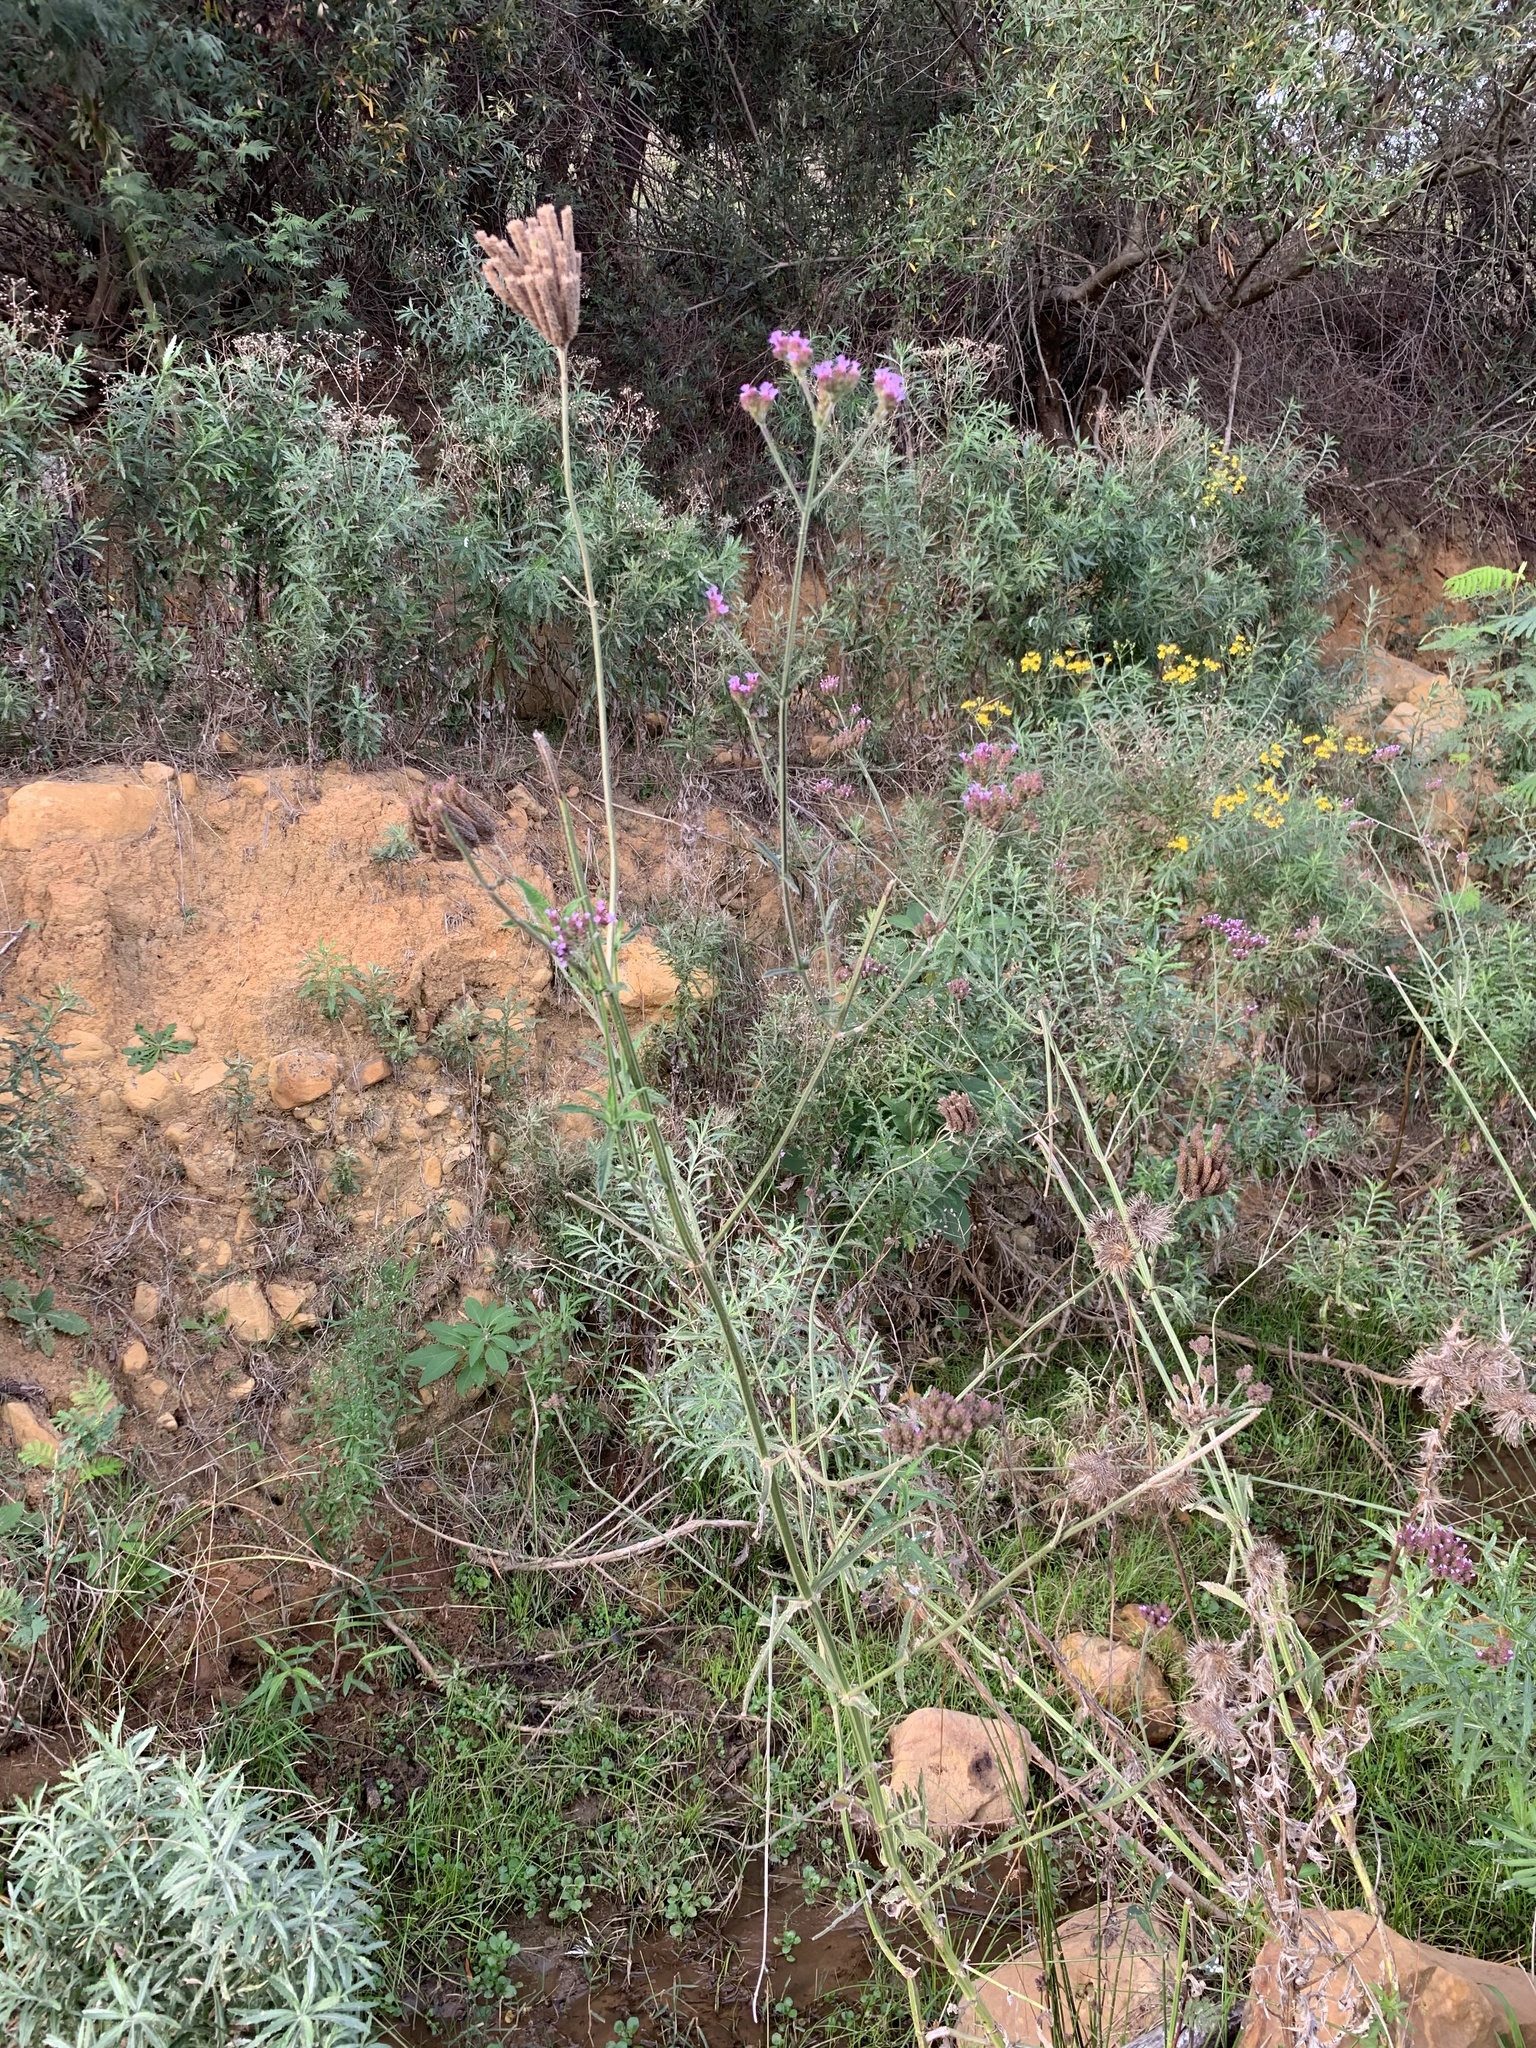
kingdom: Plantae
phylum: Tracheophyta
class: Magnoliopsida
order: Lamiales
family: Verbenaceae
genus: Verbena
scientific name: Verbena bonariensis
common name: Purpletop vervain
